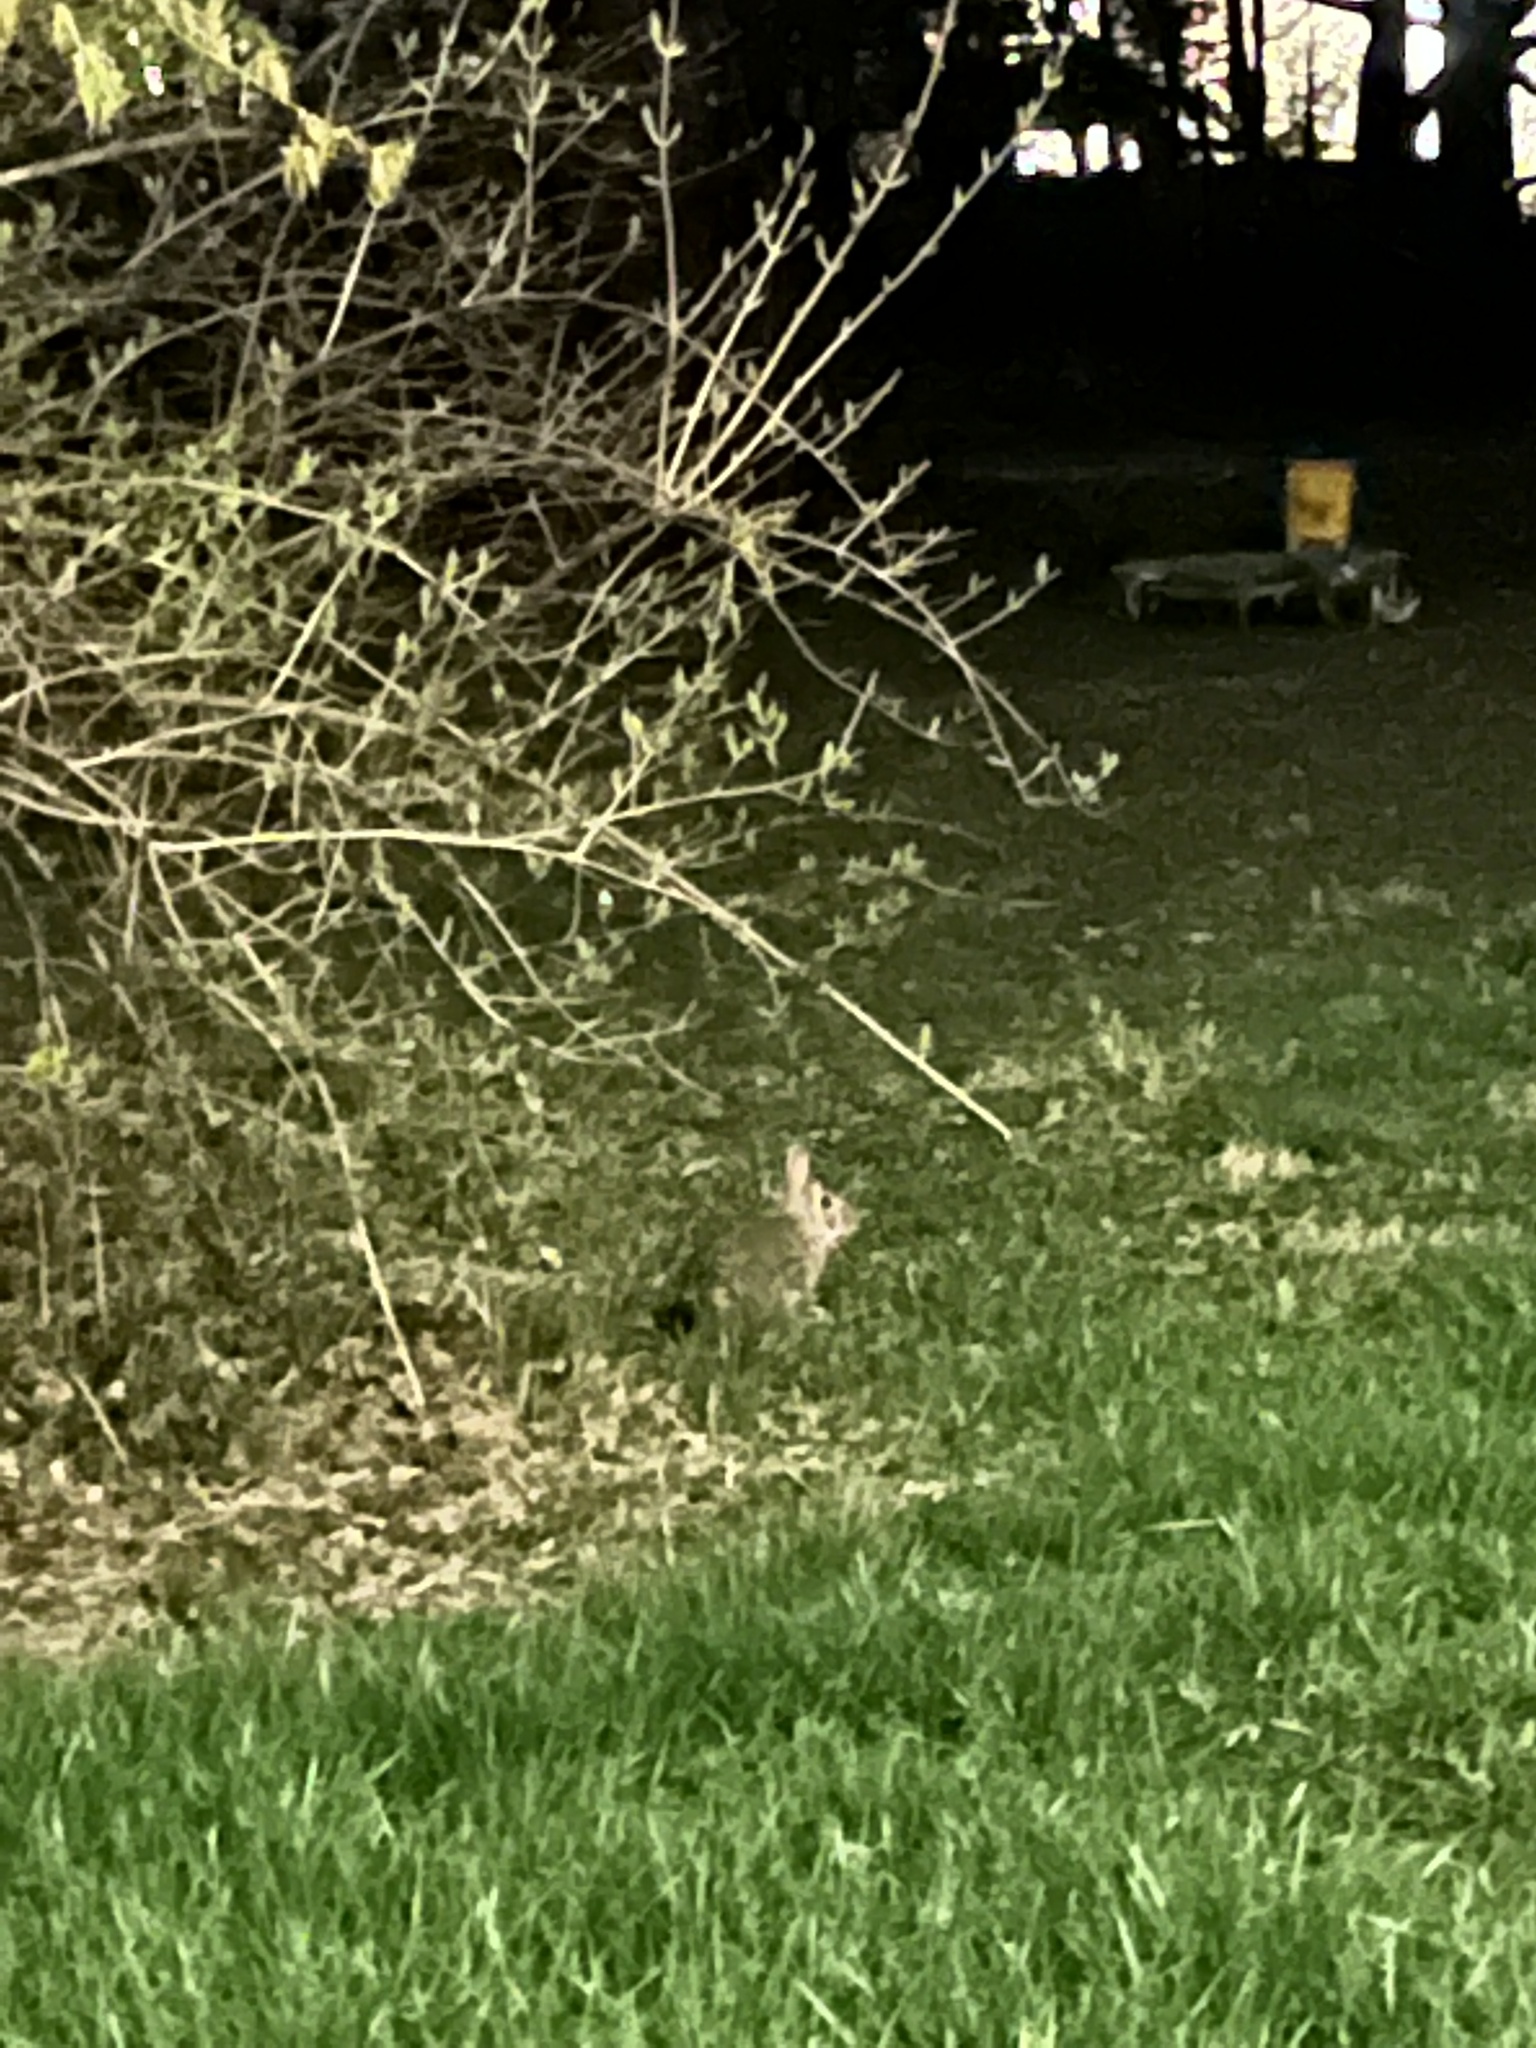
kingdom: Animalia
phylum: Chordata
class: Mammalia
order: Lagomorpha
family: Leporidae
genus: Sylvilagus
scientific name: Sylvilagus floridanus
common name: Eastern cottontail
